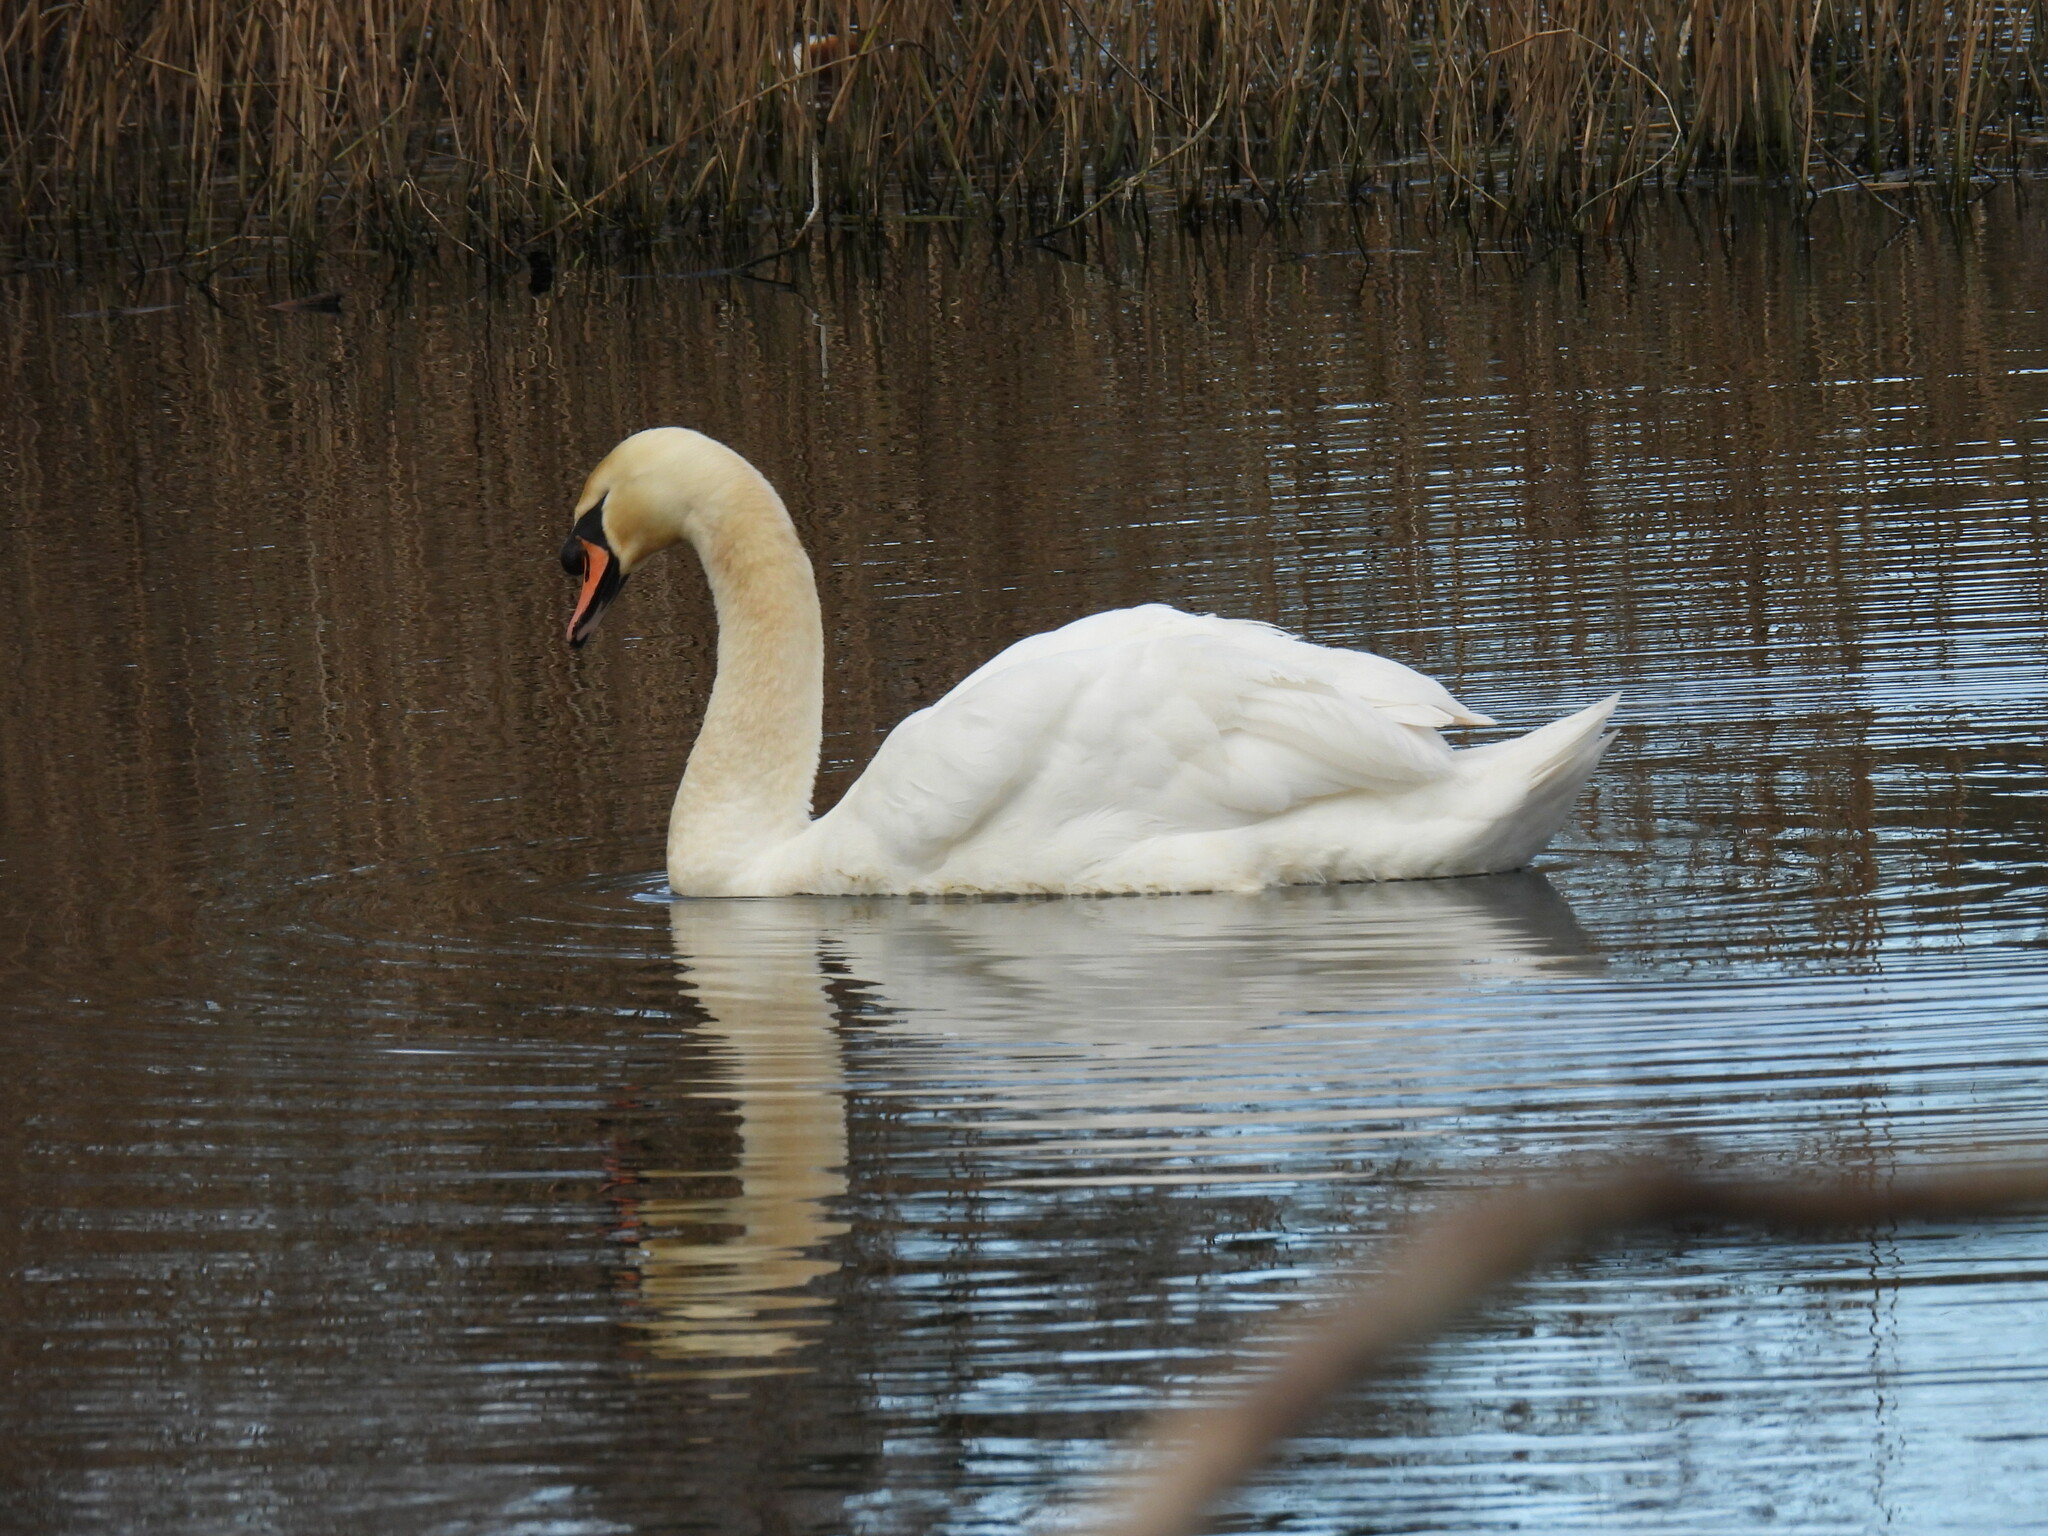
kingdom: Animalia
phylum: Chordata
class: Aves
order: Anseriformes
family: Anatidae
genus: Cygnus
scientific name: Cygnus olor
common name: Mute swan
